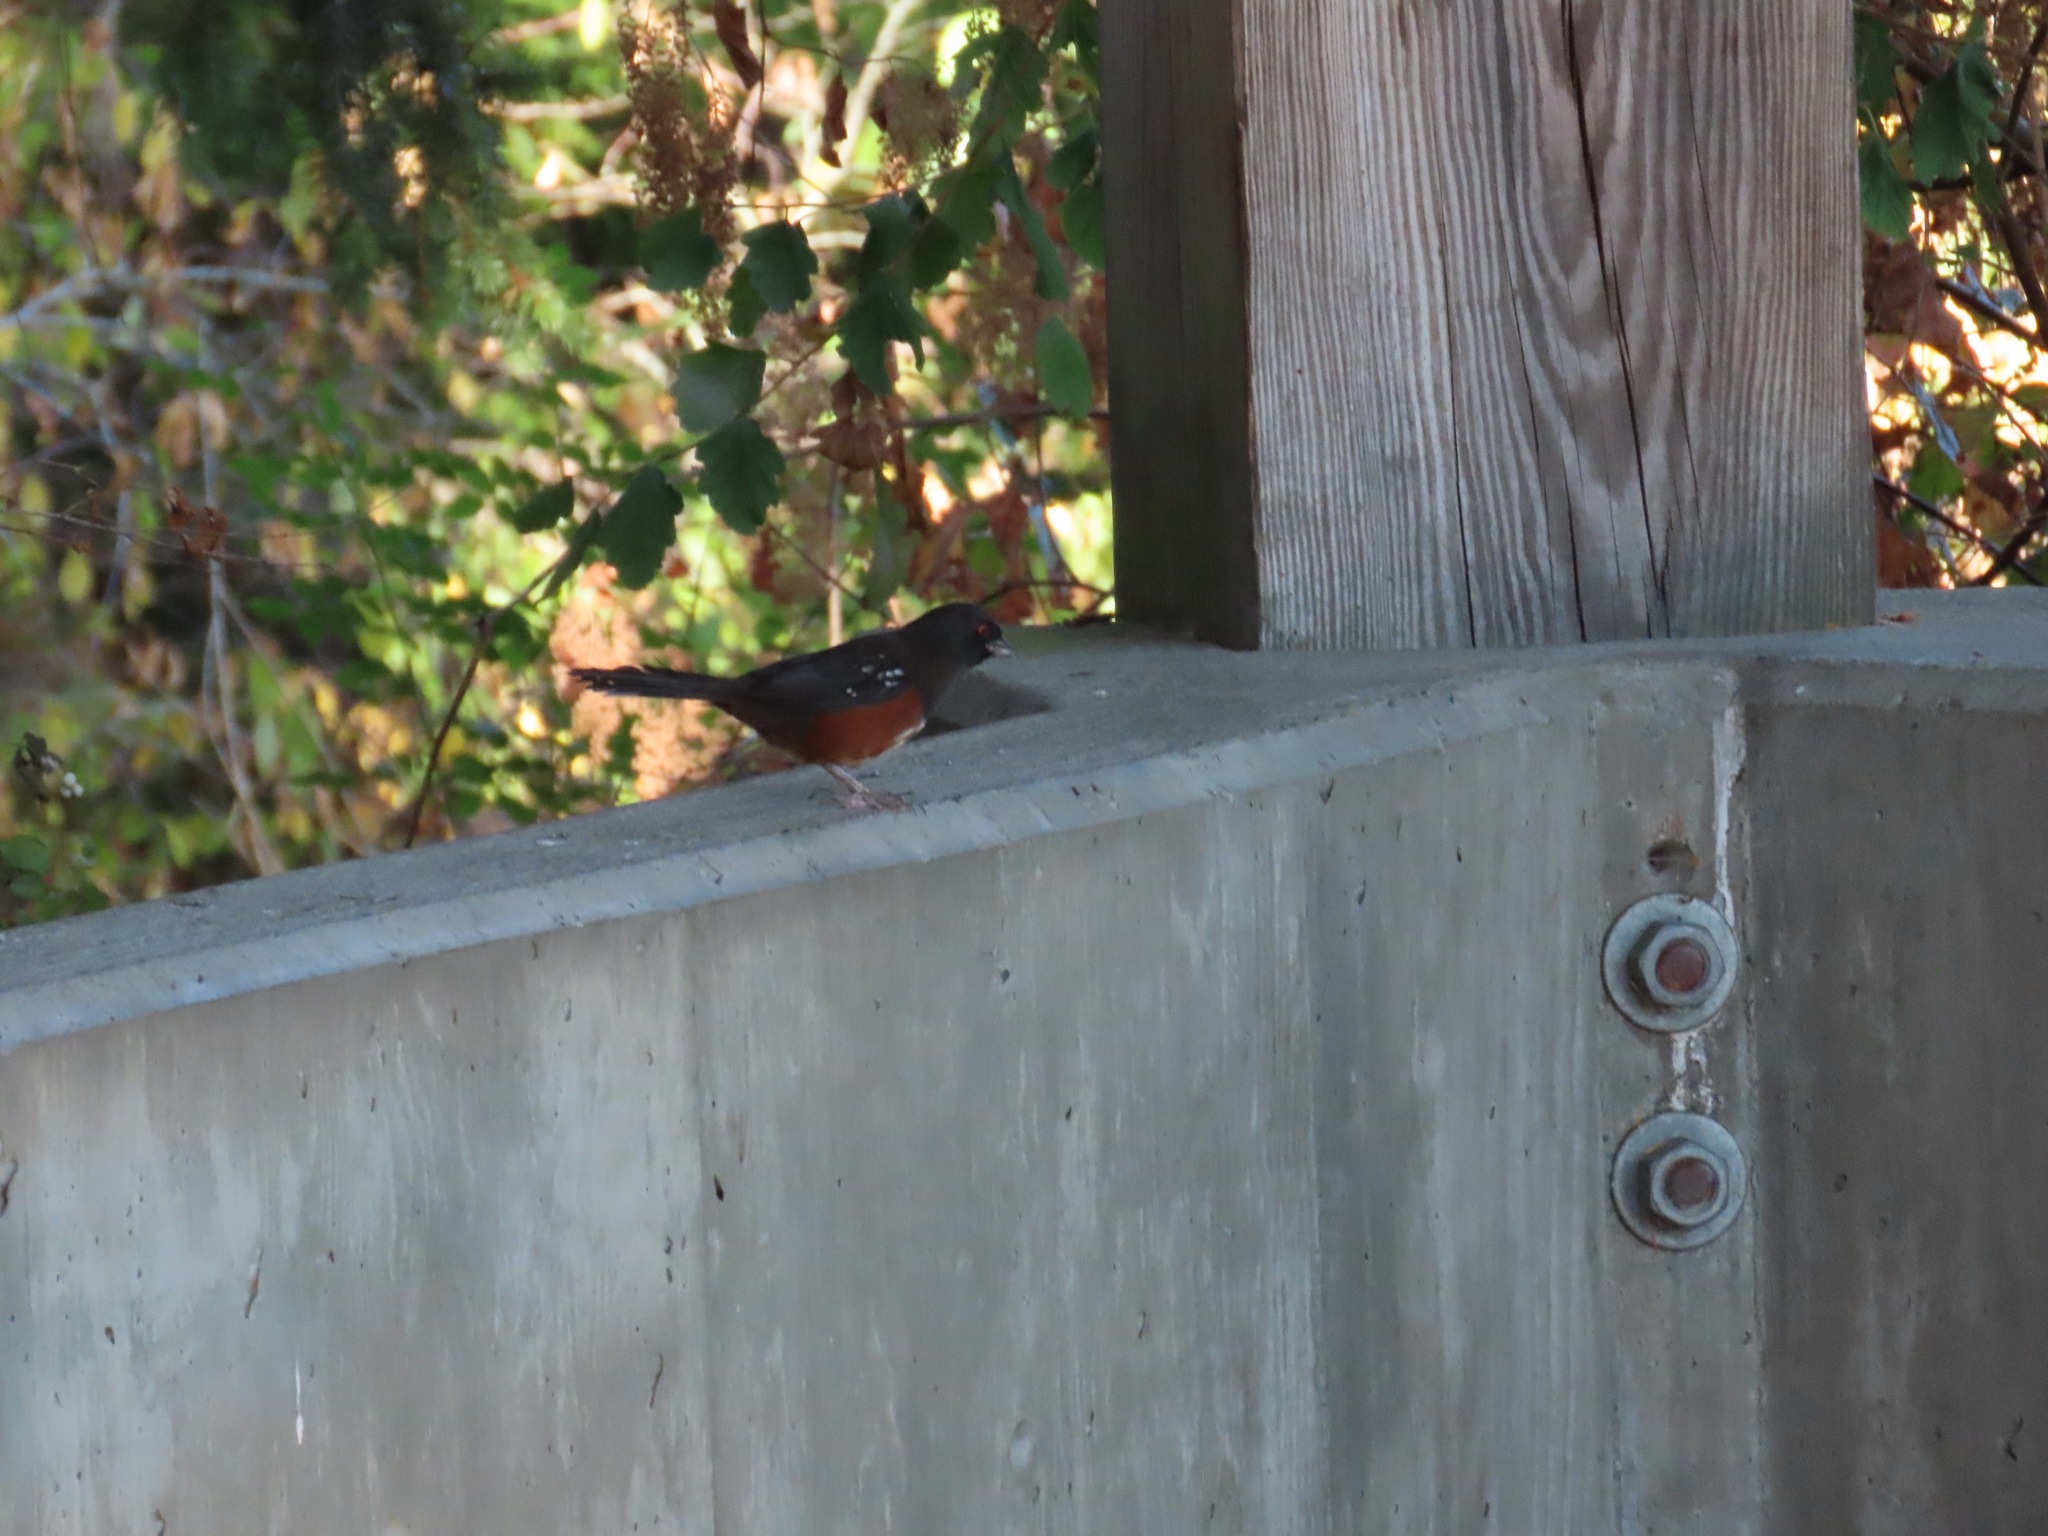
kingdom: Animalia
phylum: Chordata
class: Aves
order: Passeriformes
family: Passerellidae
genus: Pipilo
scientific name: Pipilo maculatus
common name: Spotted towhee
